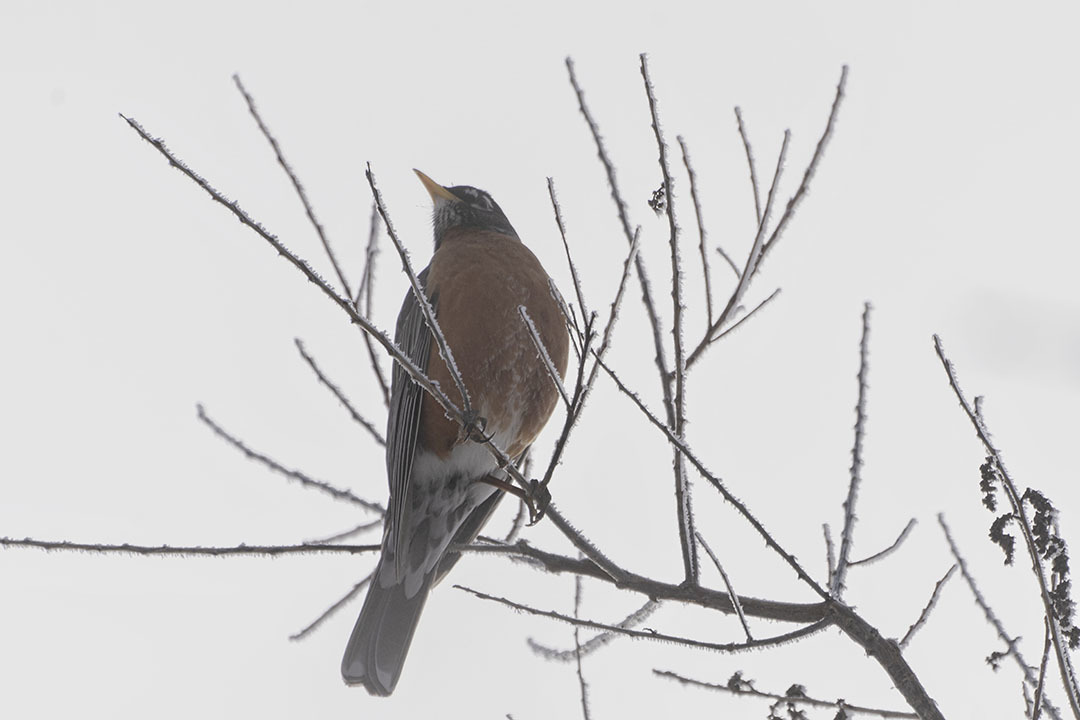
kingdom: Animalia
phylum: Chordata
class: Aves
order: Passeriformes
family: Turdidae
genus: Turdus
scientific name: Turdus migratorius
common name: American robin
